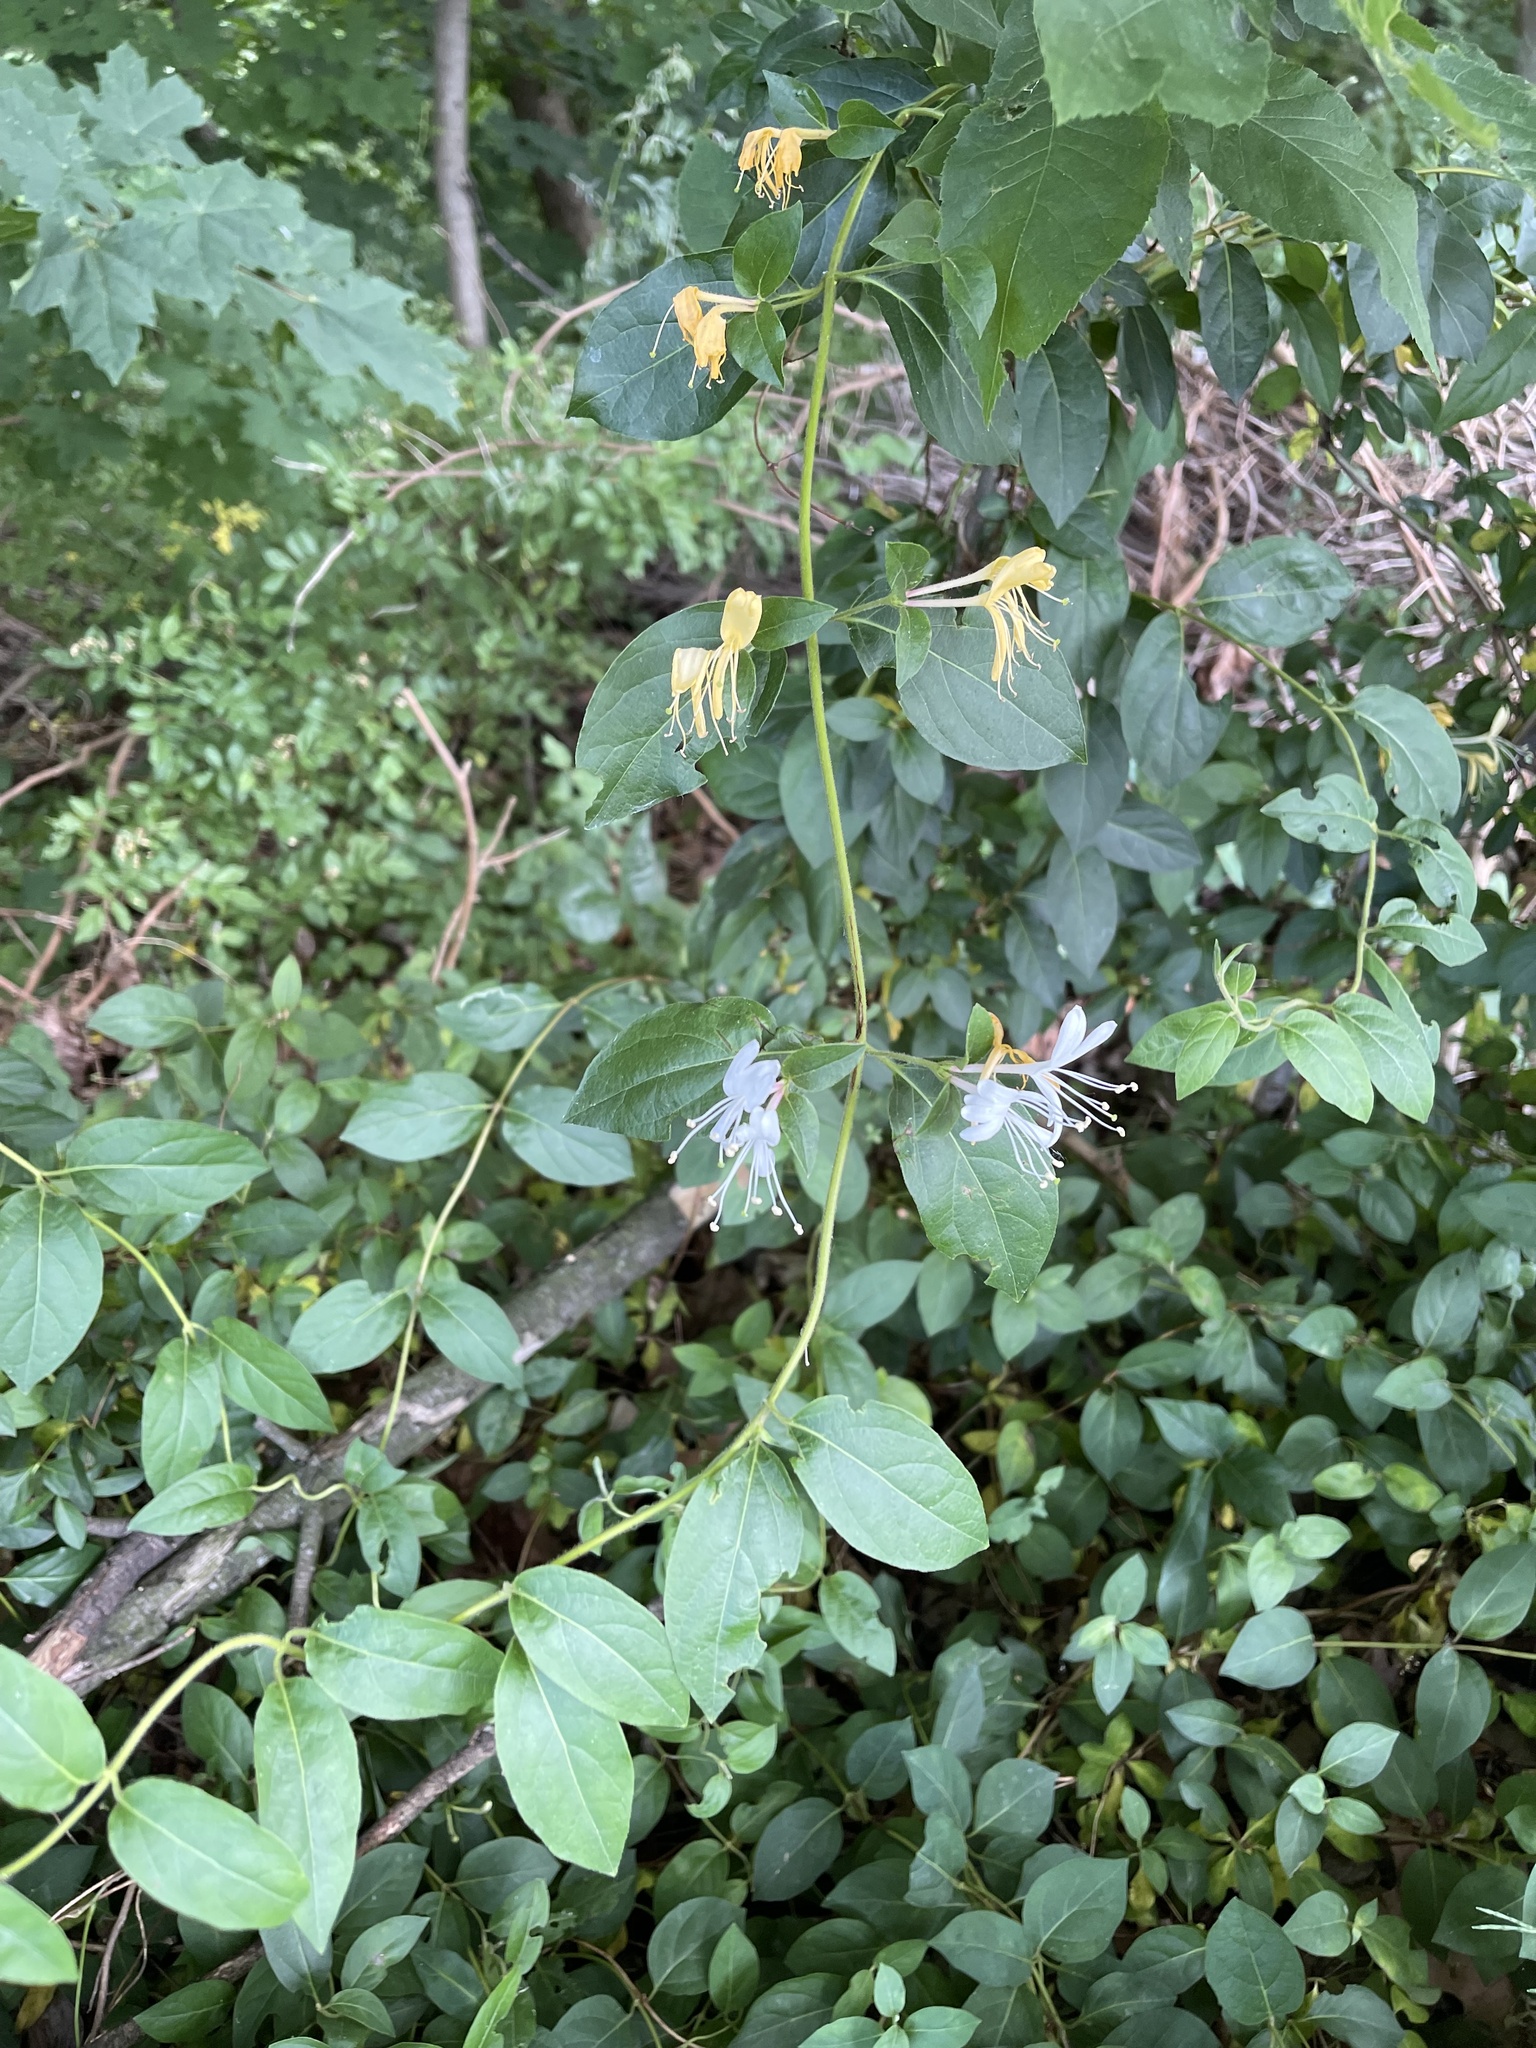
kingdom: Plantae
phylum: Tracheophyta
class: Magnoliopsida
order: Dipsacales
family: Caprifoliaceae
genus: Lonicera
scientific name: Lonicera japonica
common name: Japanese honeysuckle
